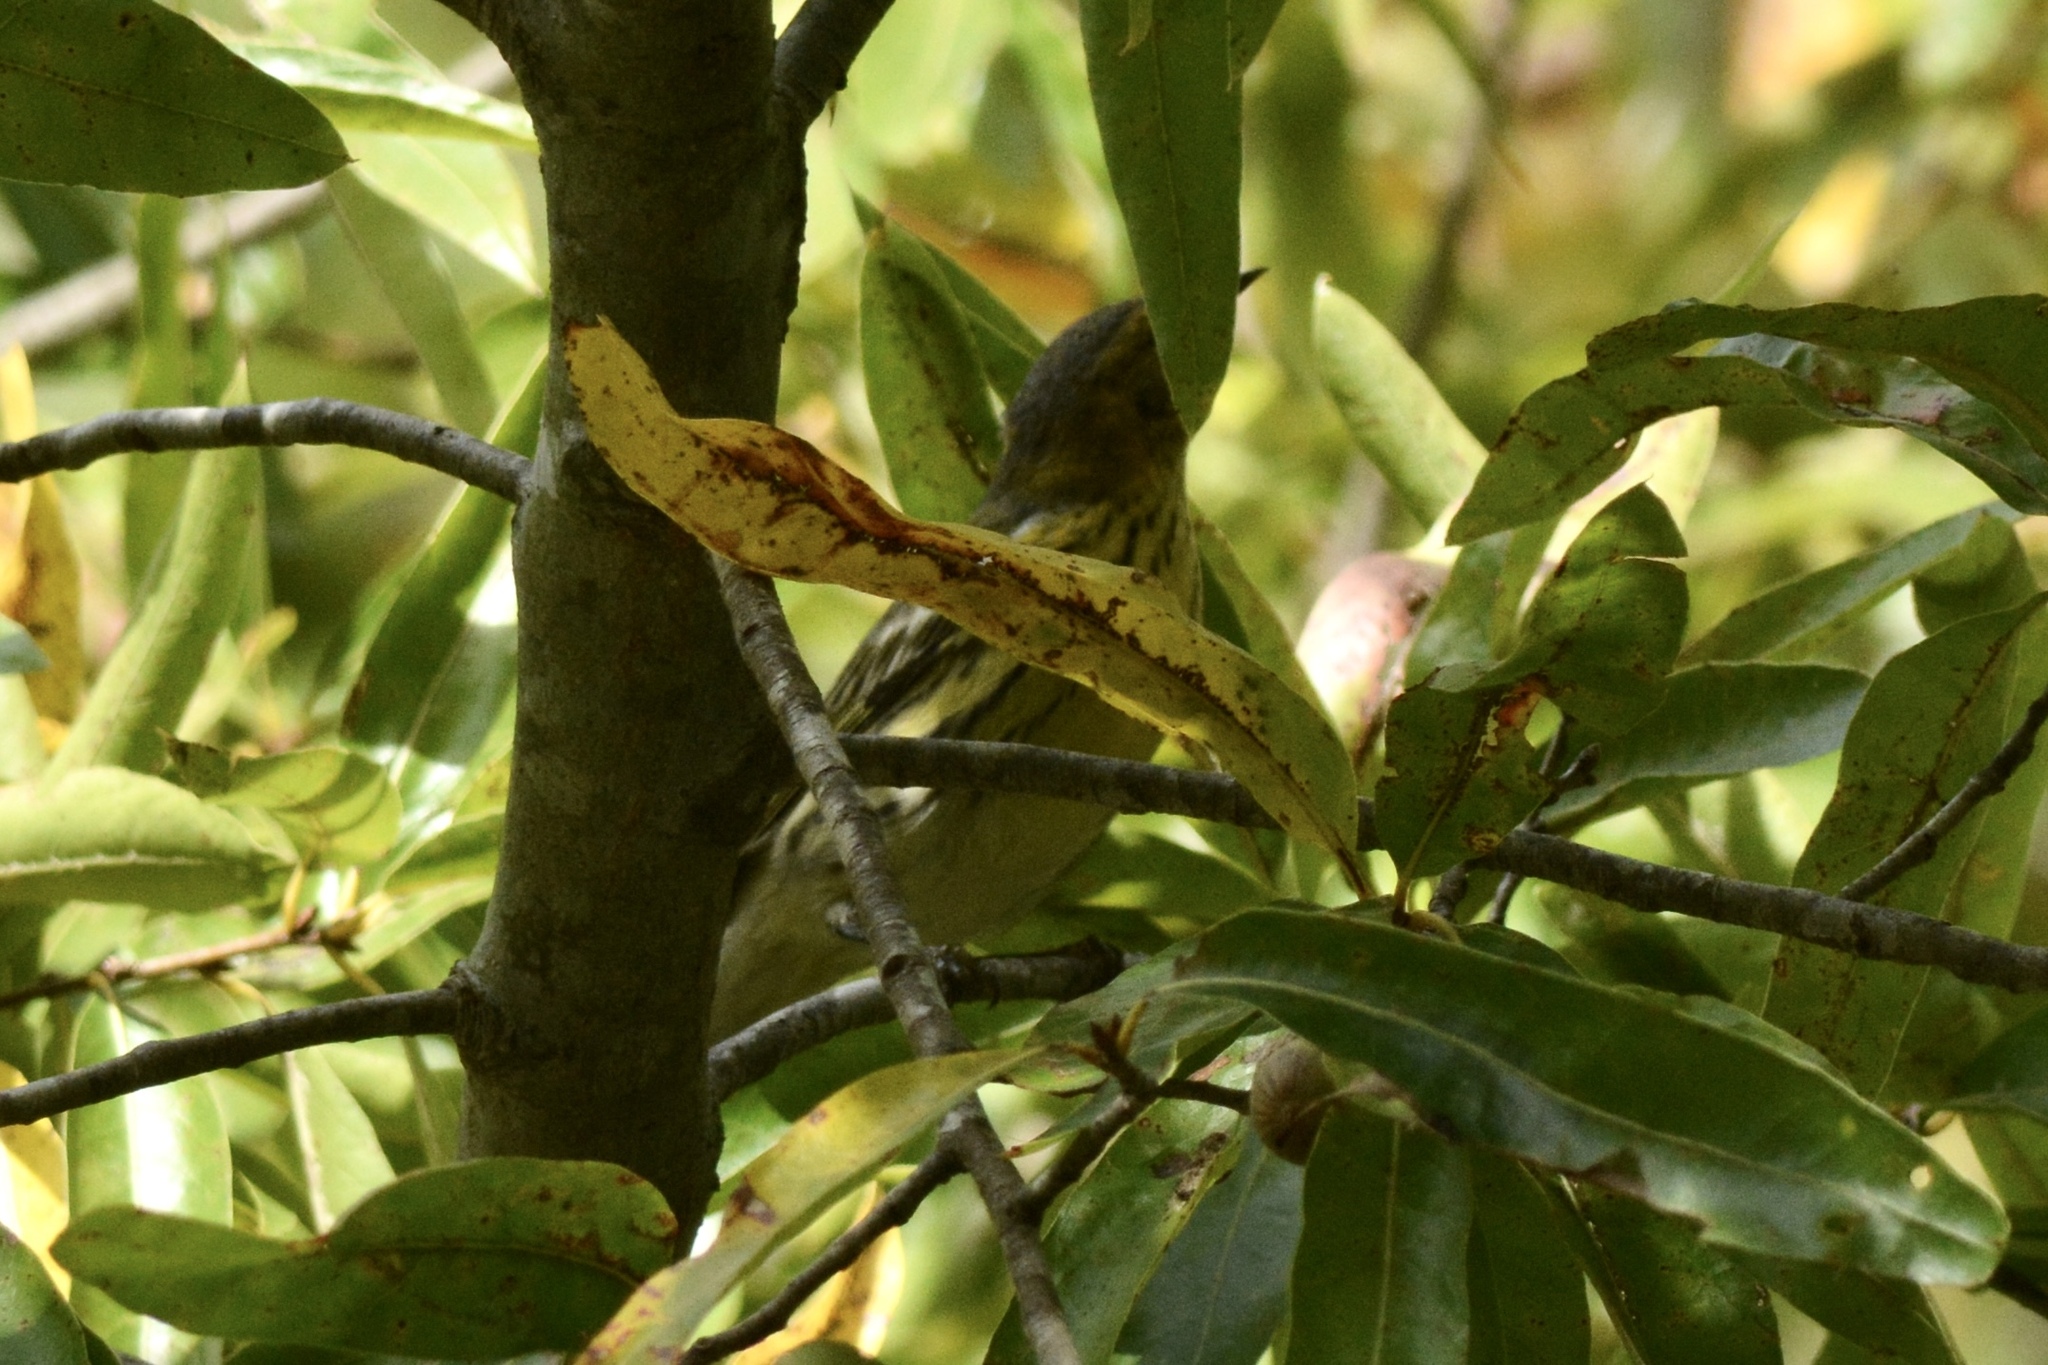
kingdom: Animalia
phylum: Chordata
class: Aves
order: Passeriformes
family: Parulidae
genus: Setophaga
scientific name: Setophaga tigrina
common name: Cape may warbler
